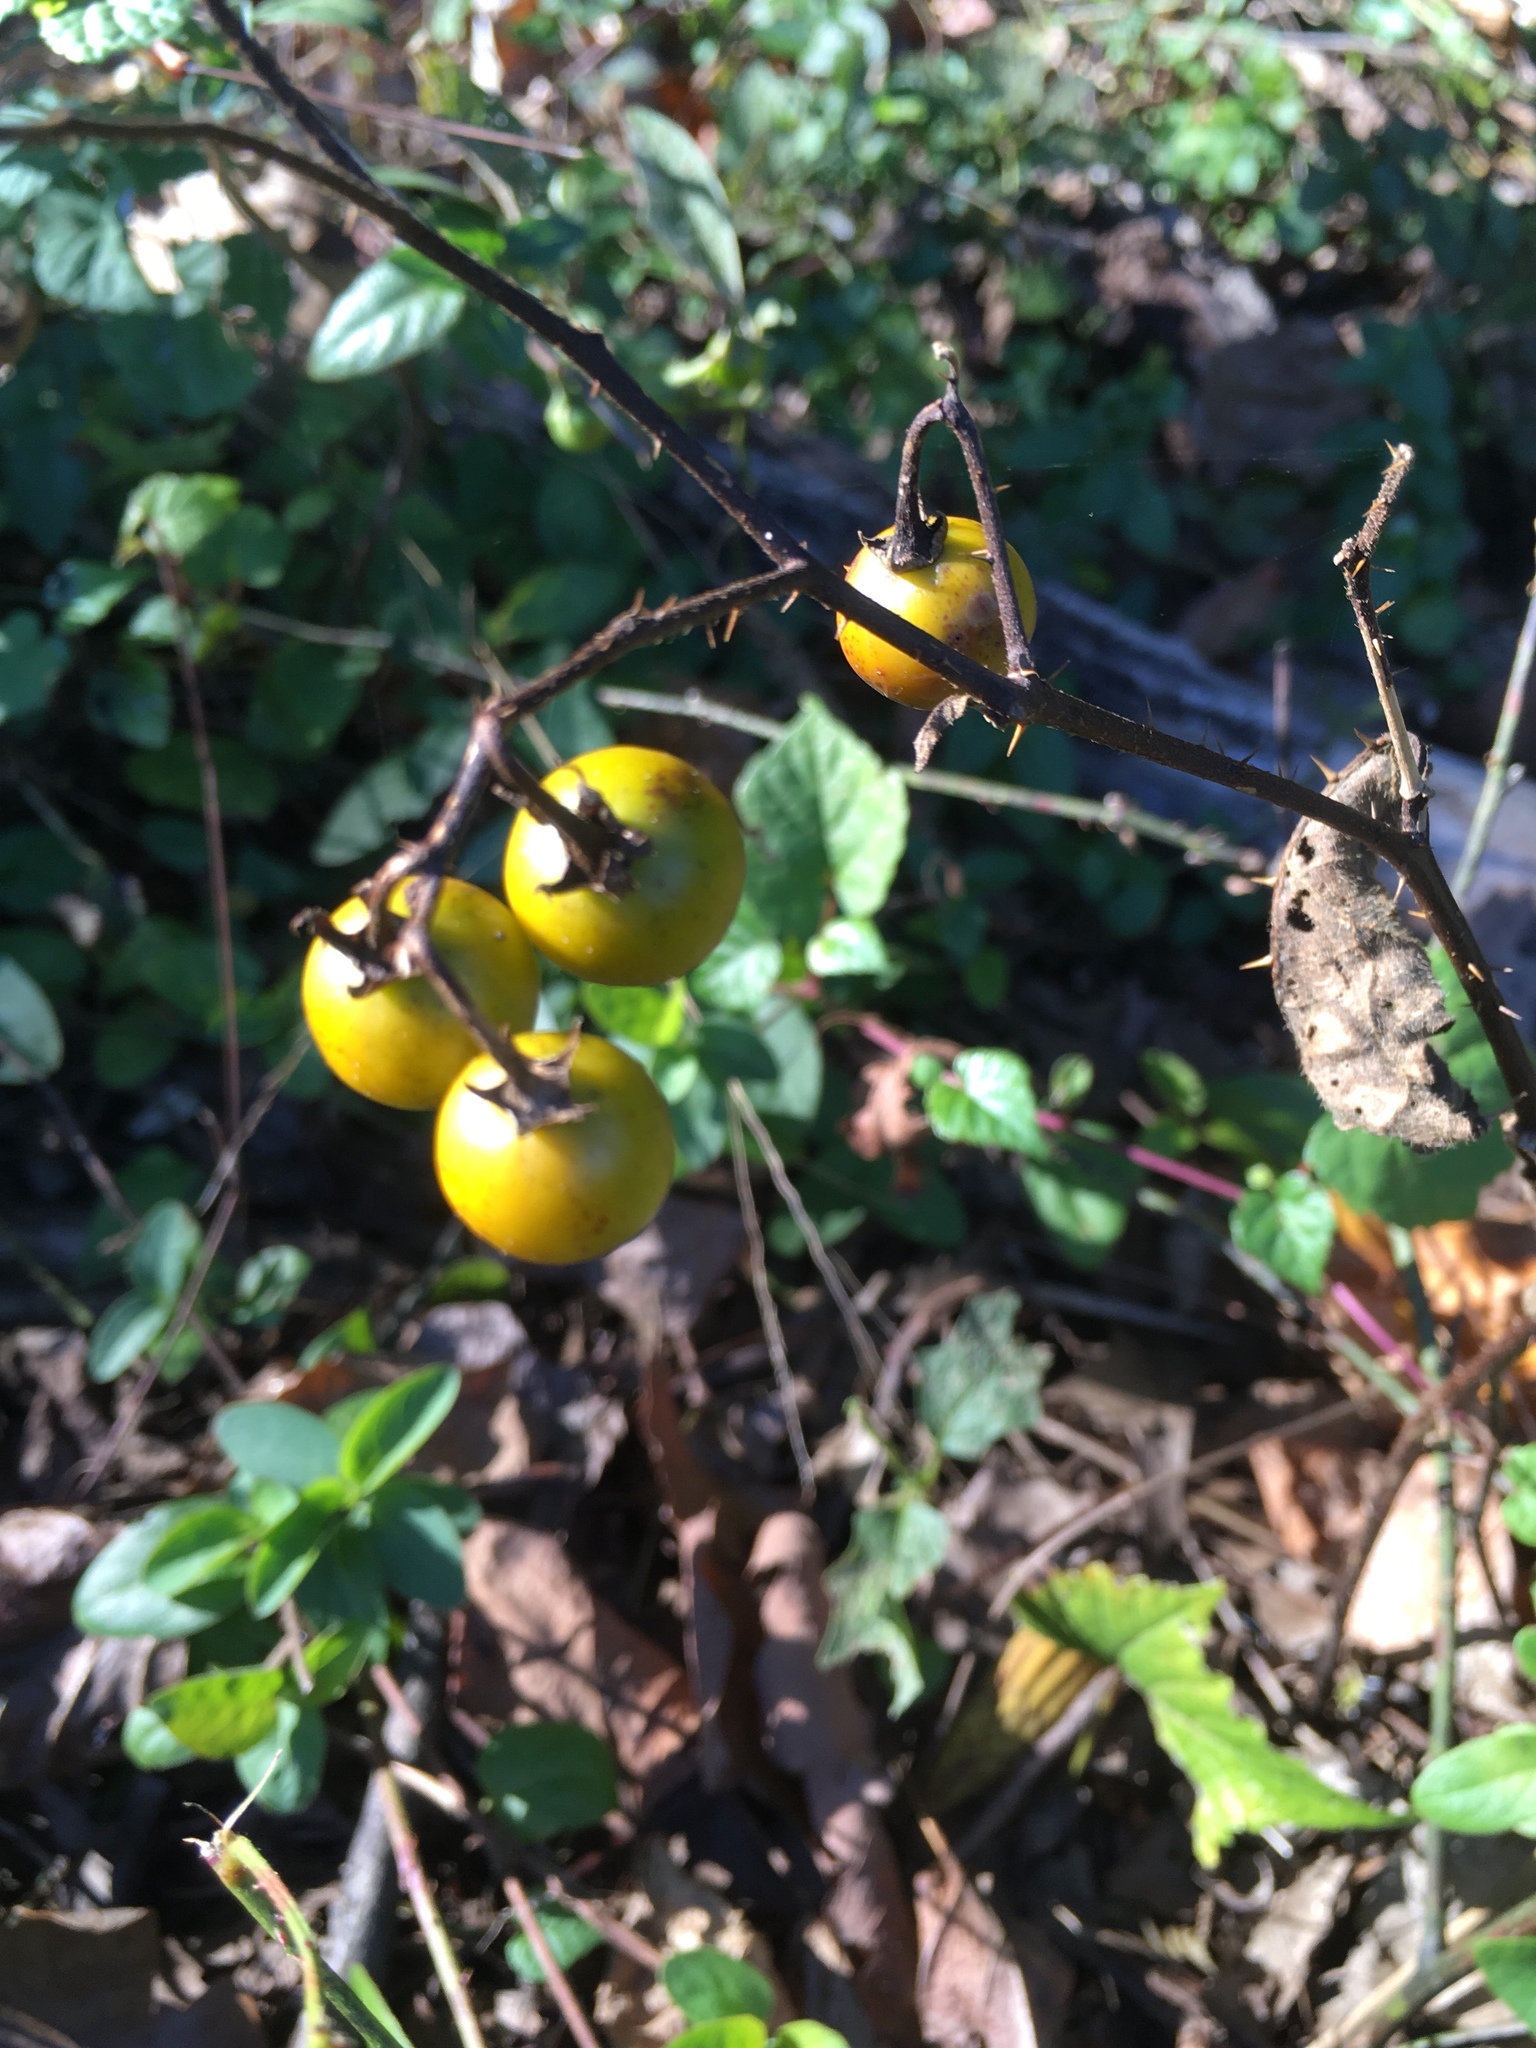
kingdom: Plantae
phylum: Tracheophyta
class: Magnoliopsida
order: Solanales
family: Solanaceae
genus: Solanum
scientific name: Solanum carolinense
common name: Horse-nettle
